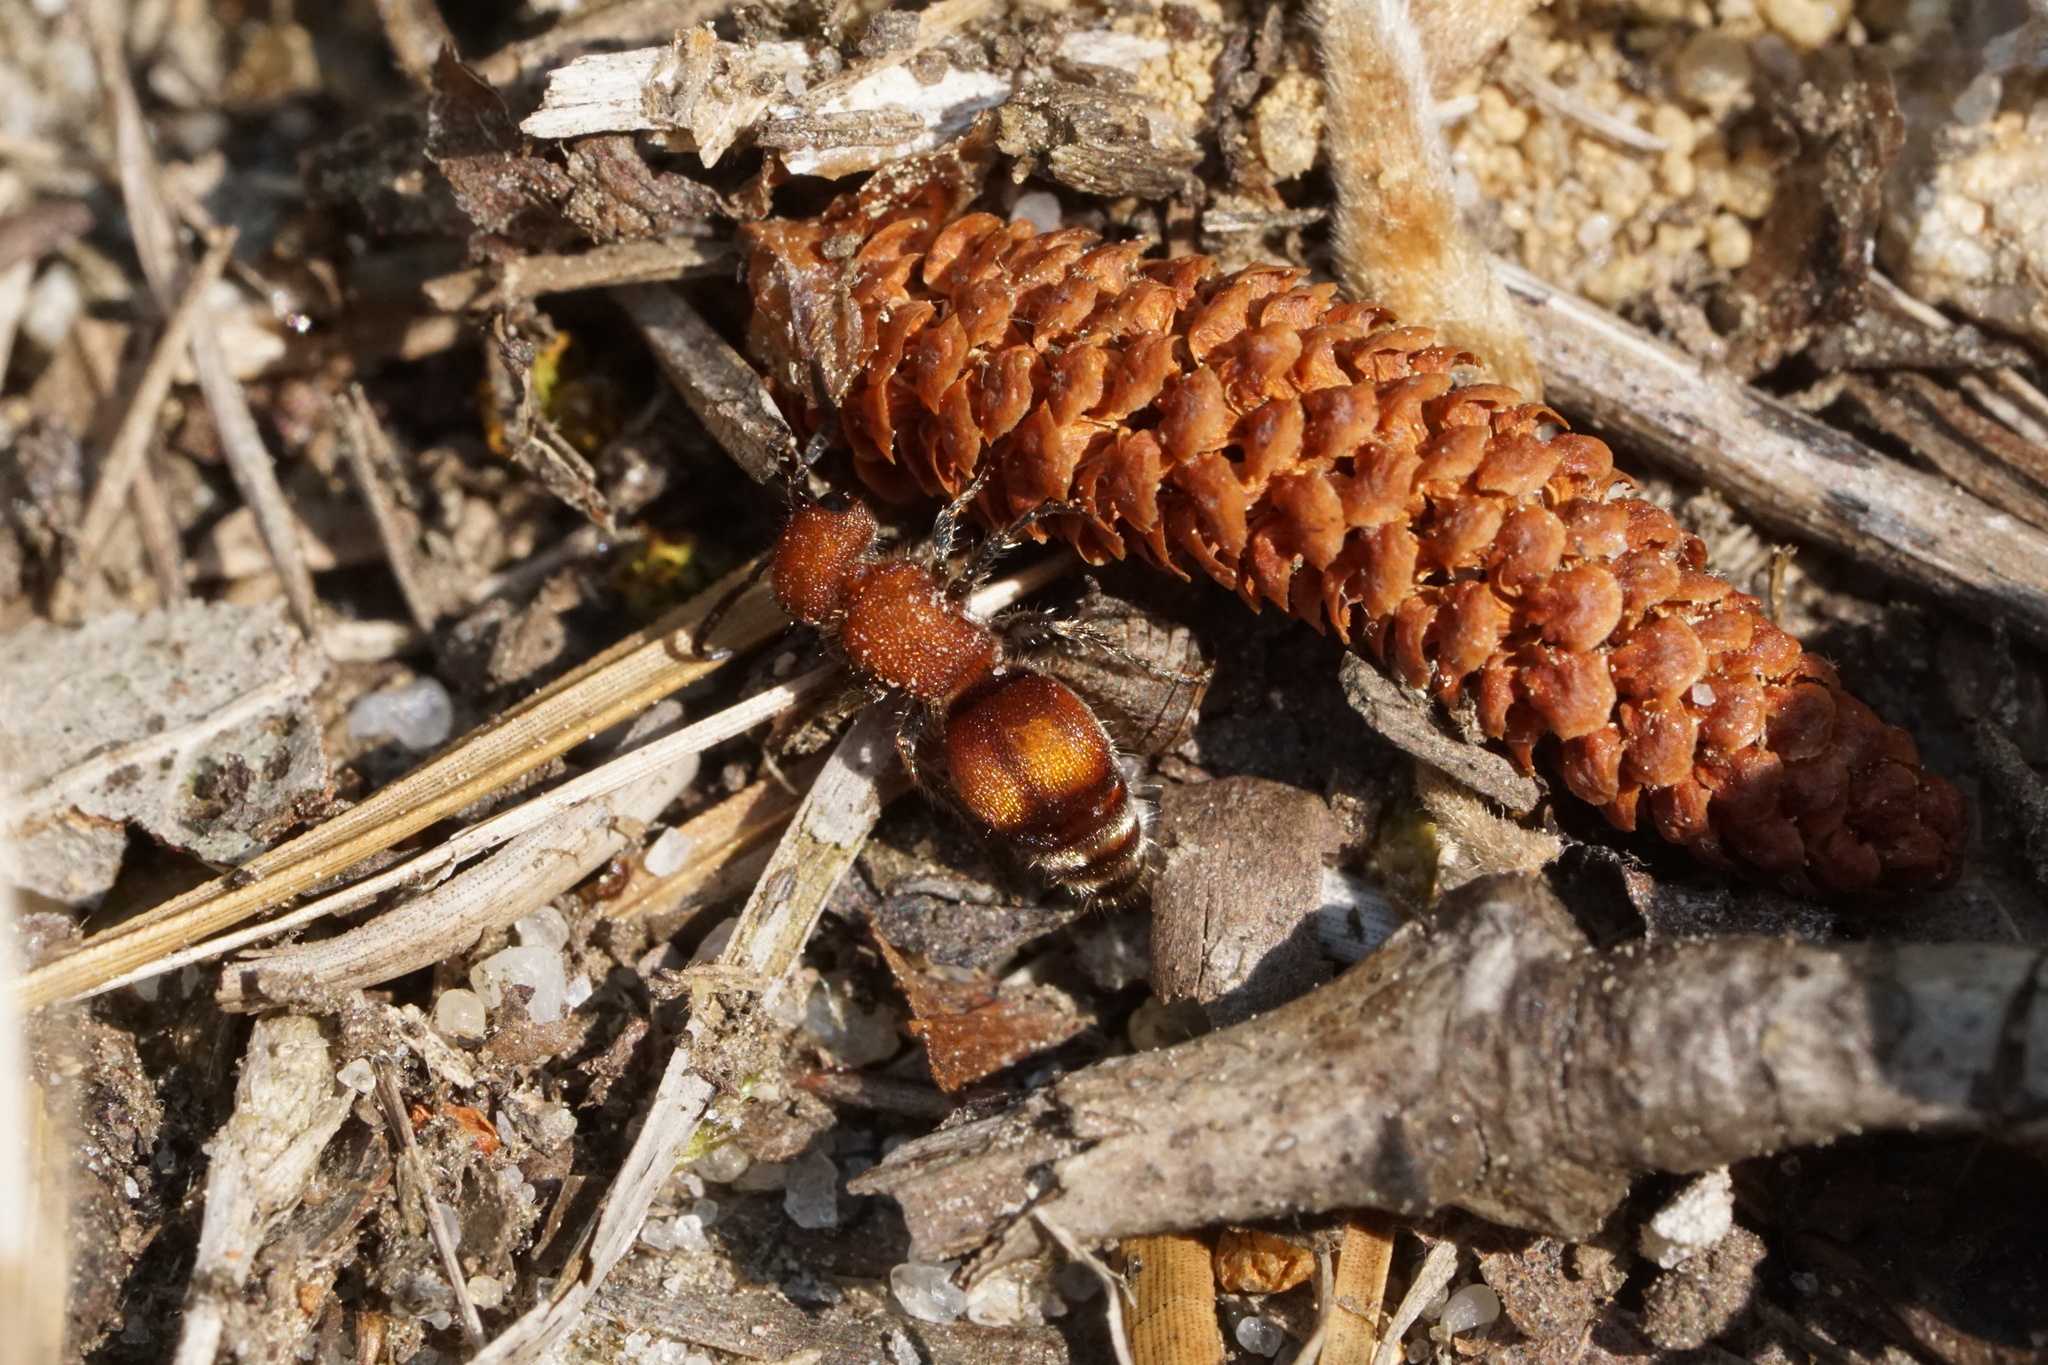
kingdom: Animalia
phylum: Arthropoda
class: Insecta
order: Hymenoptera
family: Mutillidae
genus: Pseudomethoca
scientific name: Pseudomethoca
